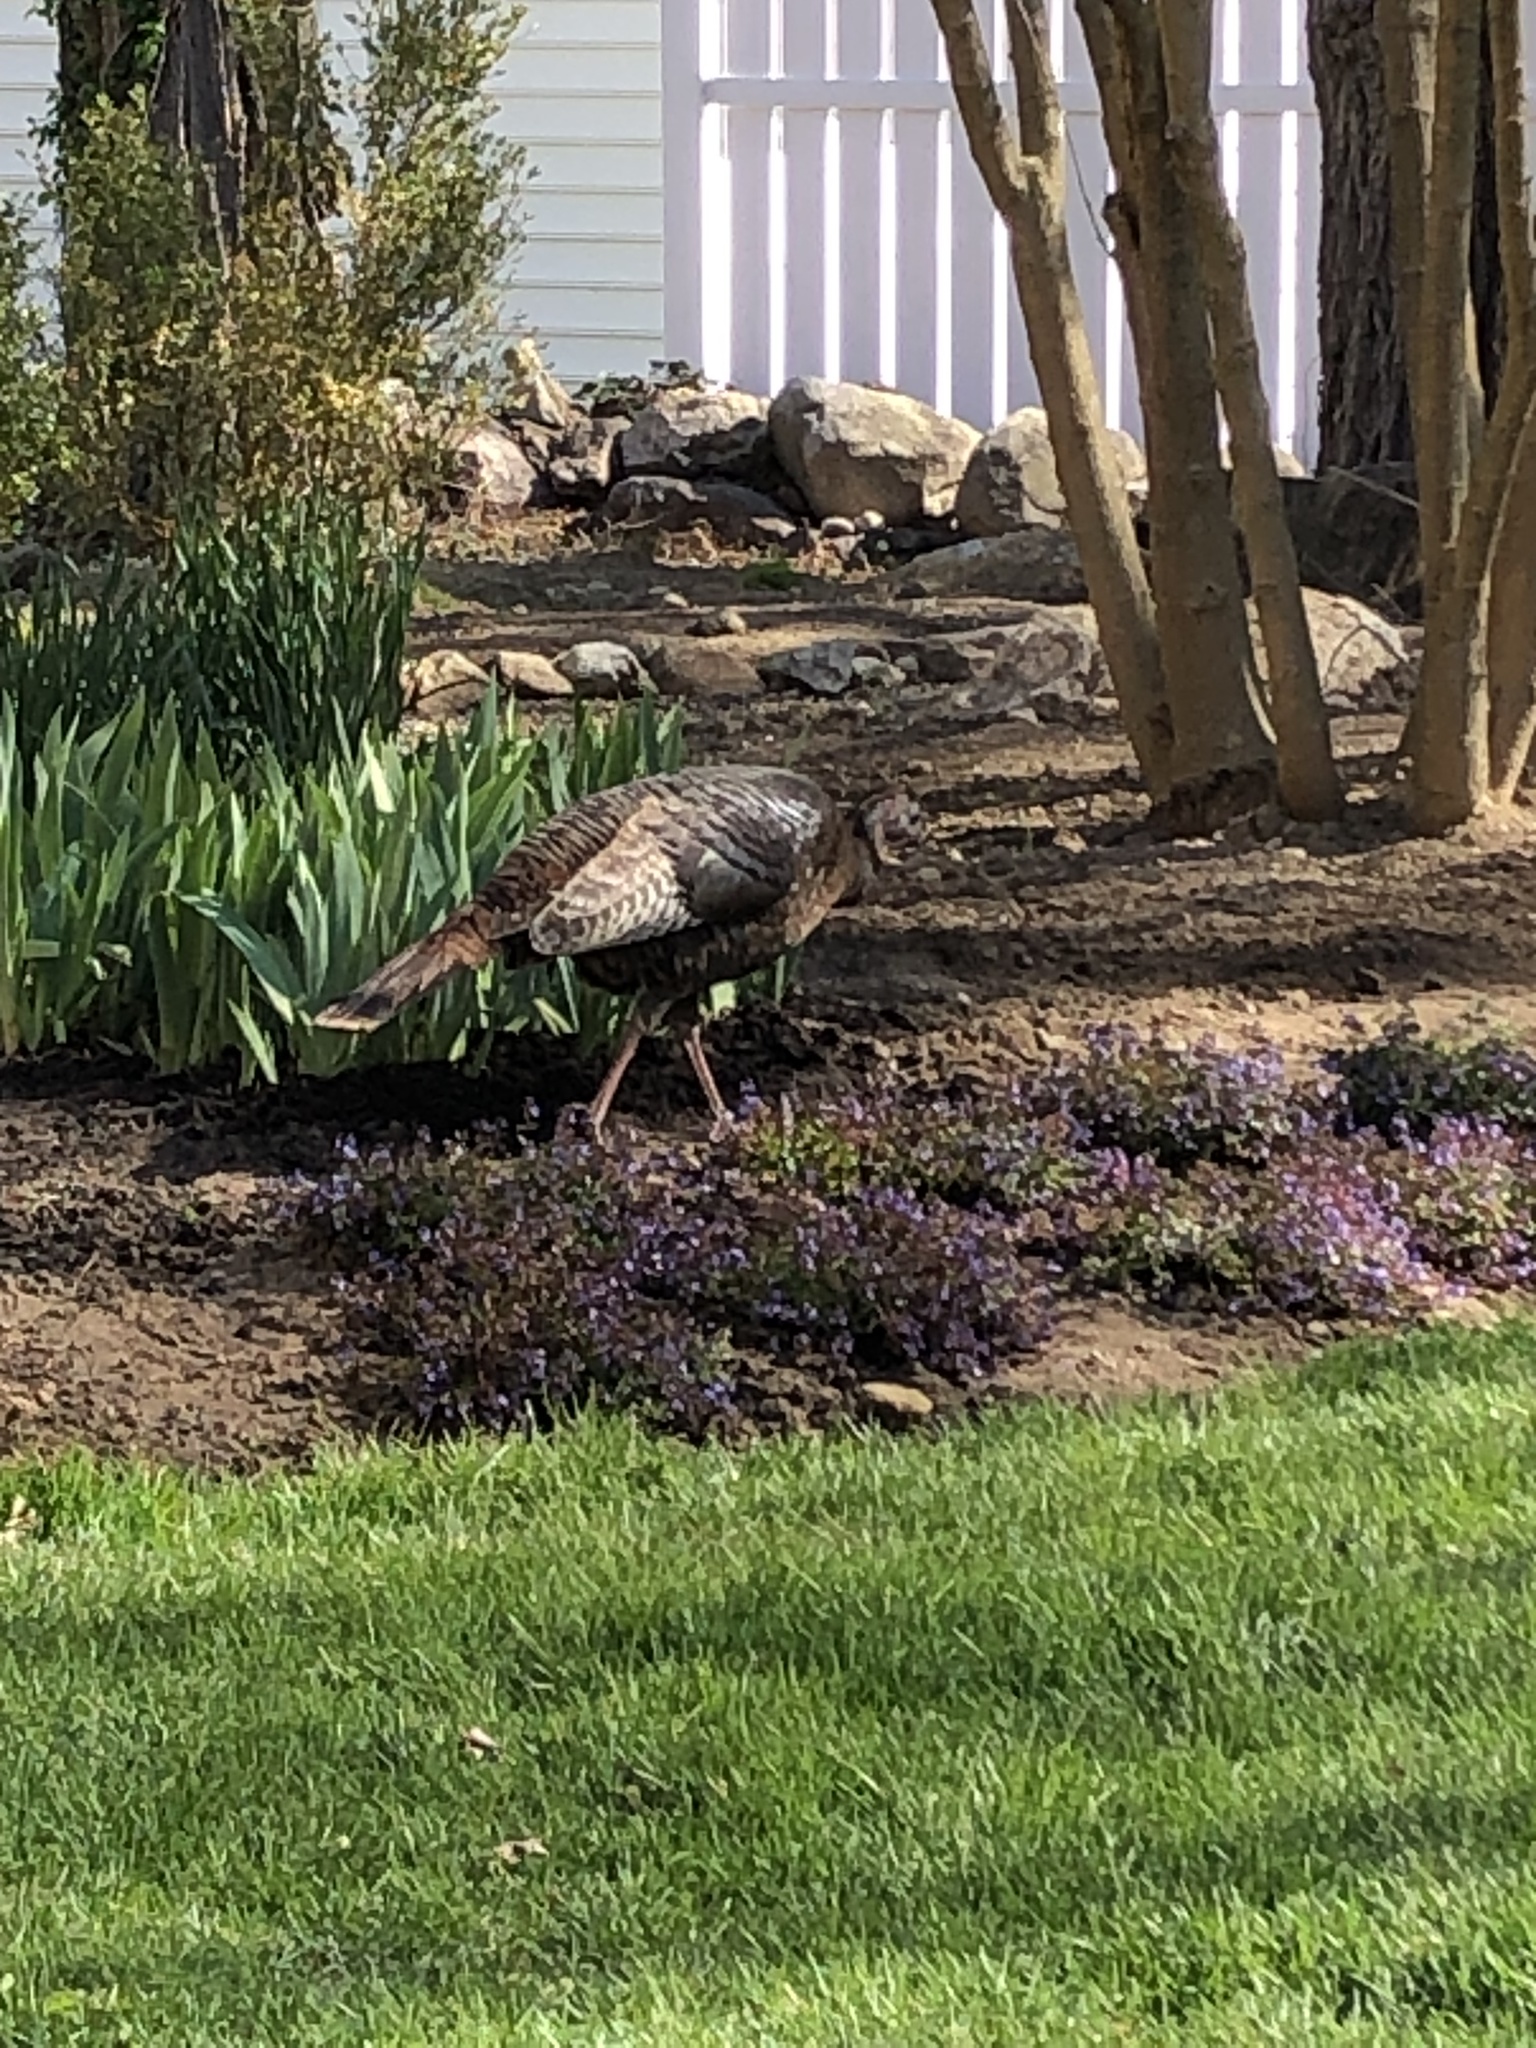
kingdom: Animalia
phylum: Chordata
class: Aves
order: Galliformes
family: Phasianidae
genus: Meleagris
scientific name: Meleagris gallopavo
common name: Wild turkey
